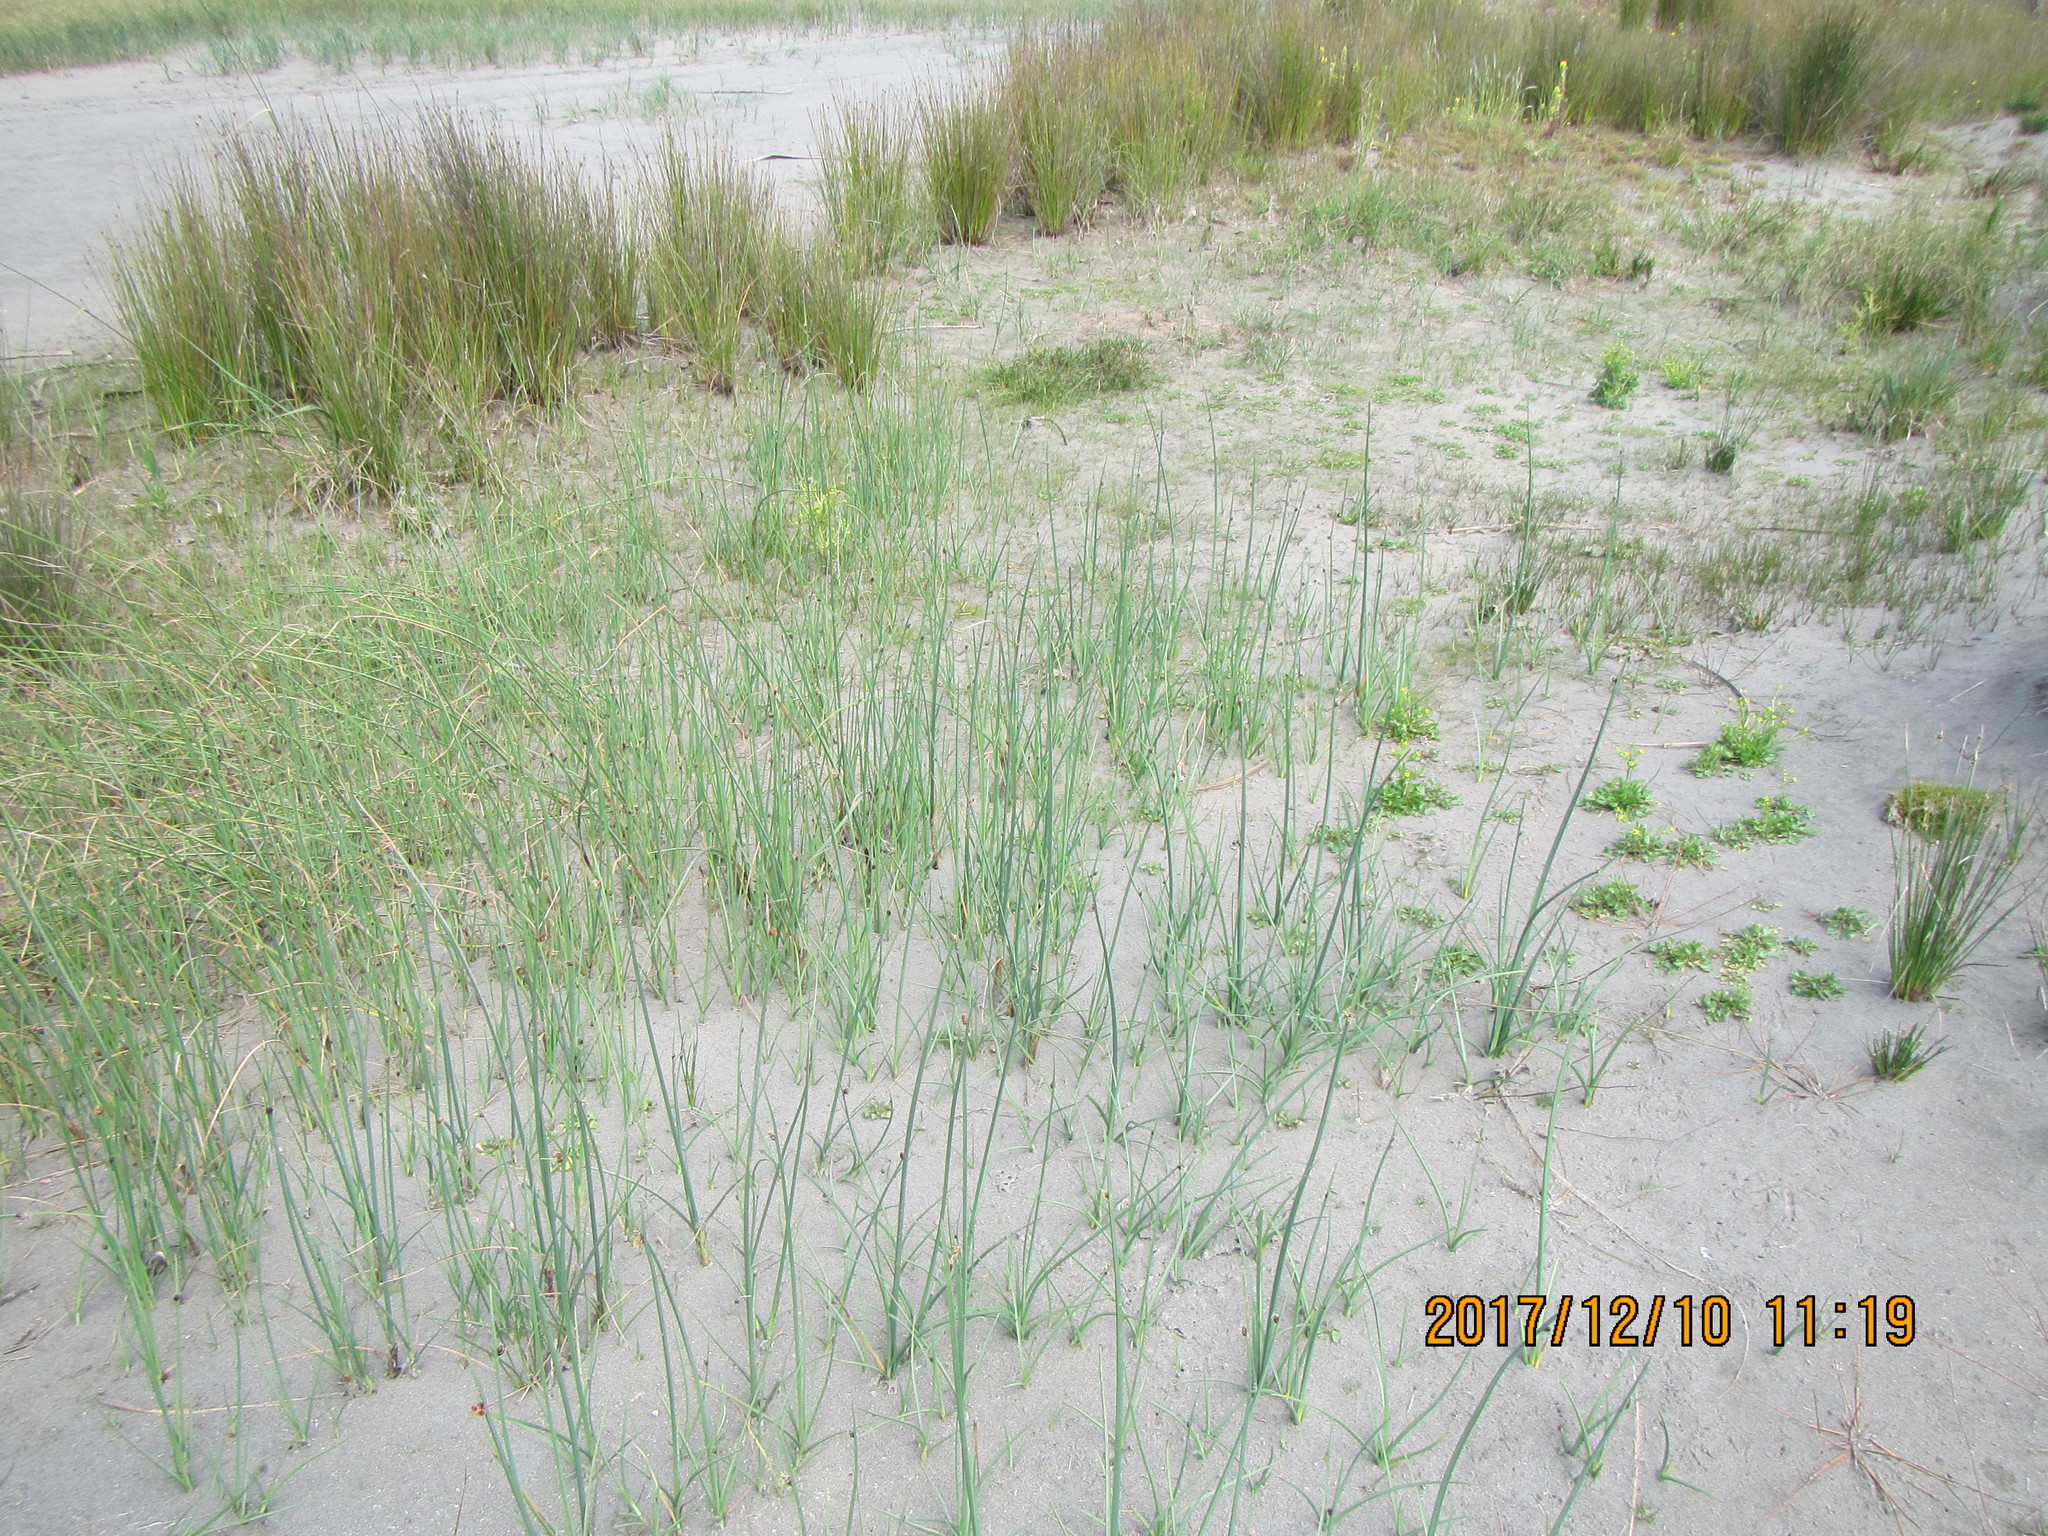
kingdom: Plantae
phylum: Tracheophyta
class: Liliopsida
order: Poales
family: Cyperaceae
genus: Schoenoplectus
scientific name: Schoenoplectus pungens
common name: Sharp club-rush
